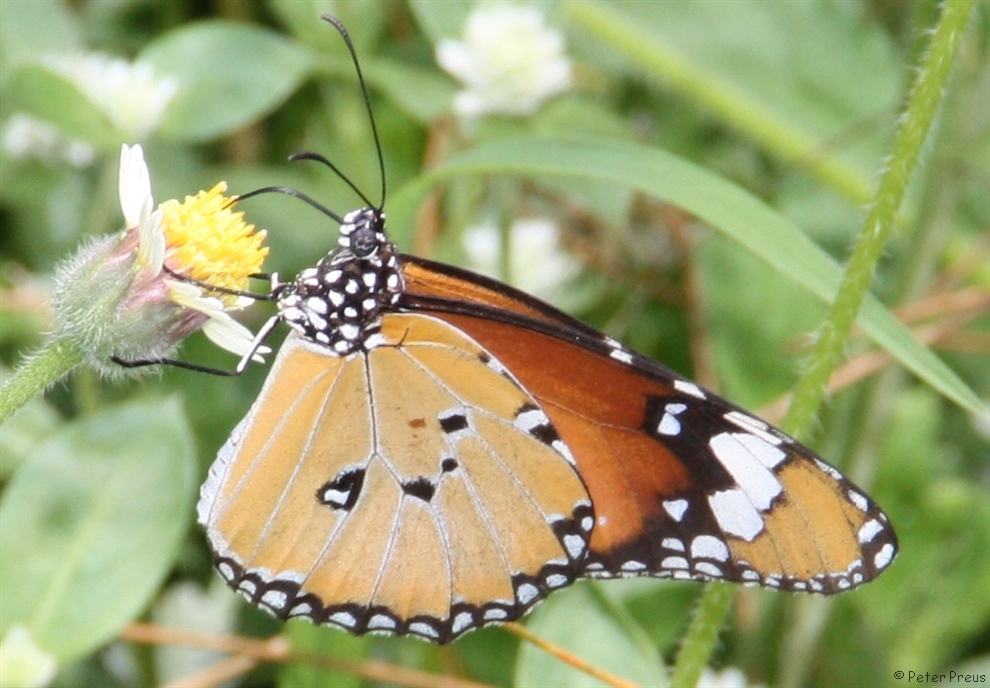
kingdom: Animalia
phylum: Arthropoda
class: Insecta
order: Lepidoptera
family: Nymphalidae
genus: Danaus
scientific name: Danaus chrysippus
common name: Plain tiger
